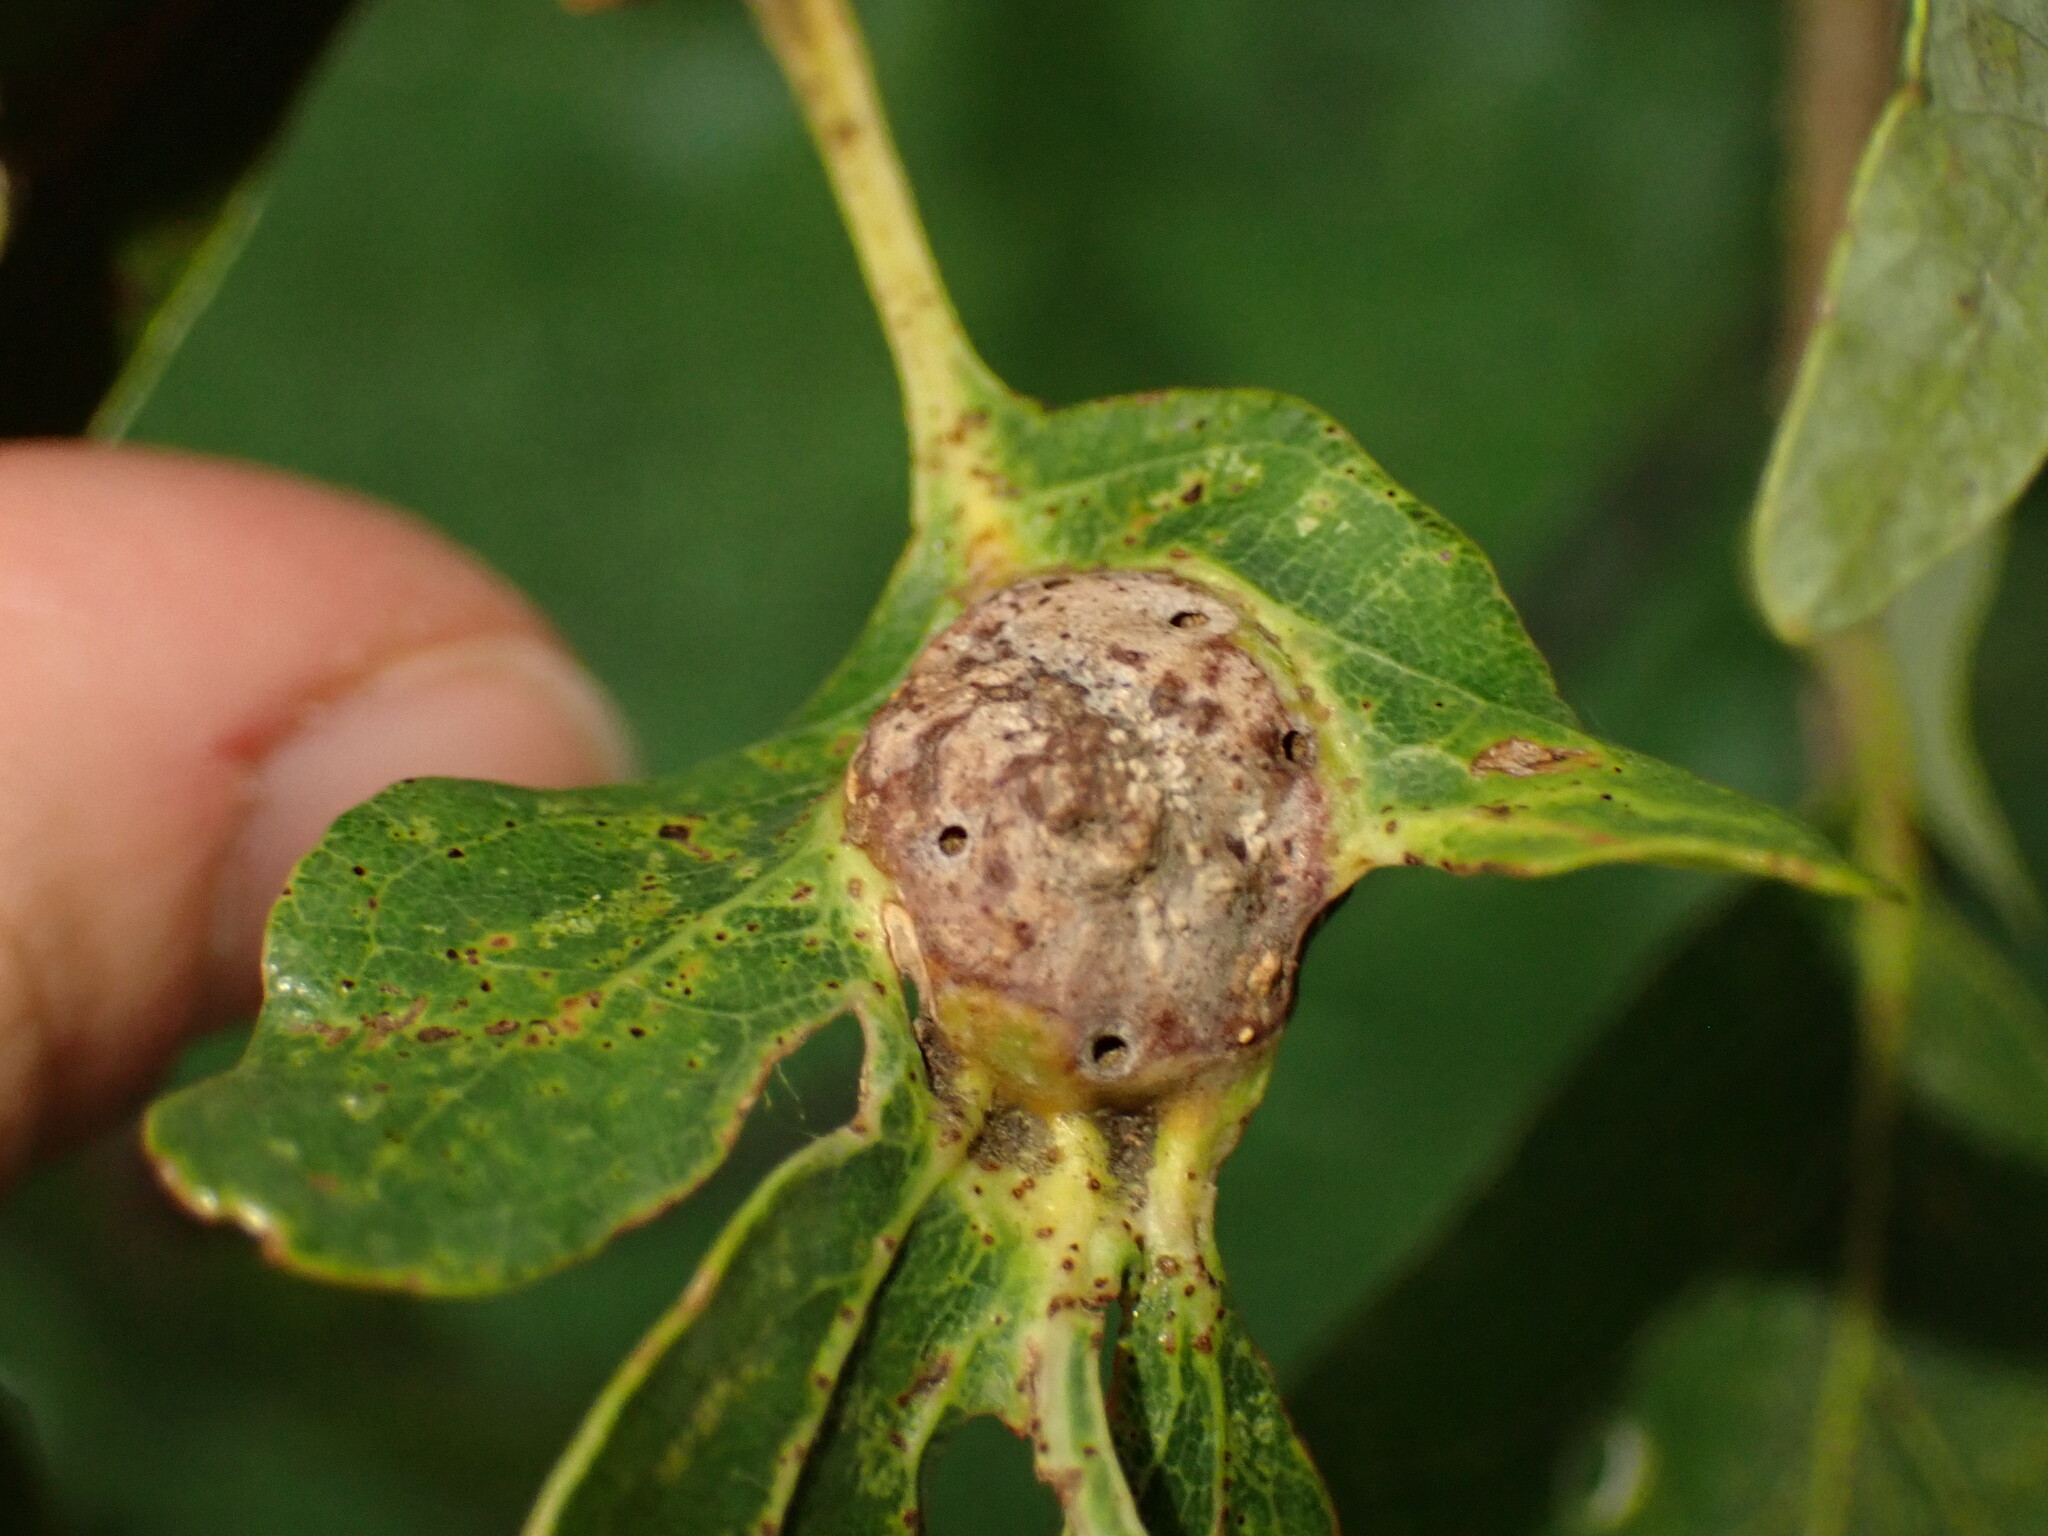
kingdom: Animalia
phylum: Arthropoda
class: Insecta
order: Hymenoptera
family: Cynipidae
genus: Andricus
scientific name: Andricus
